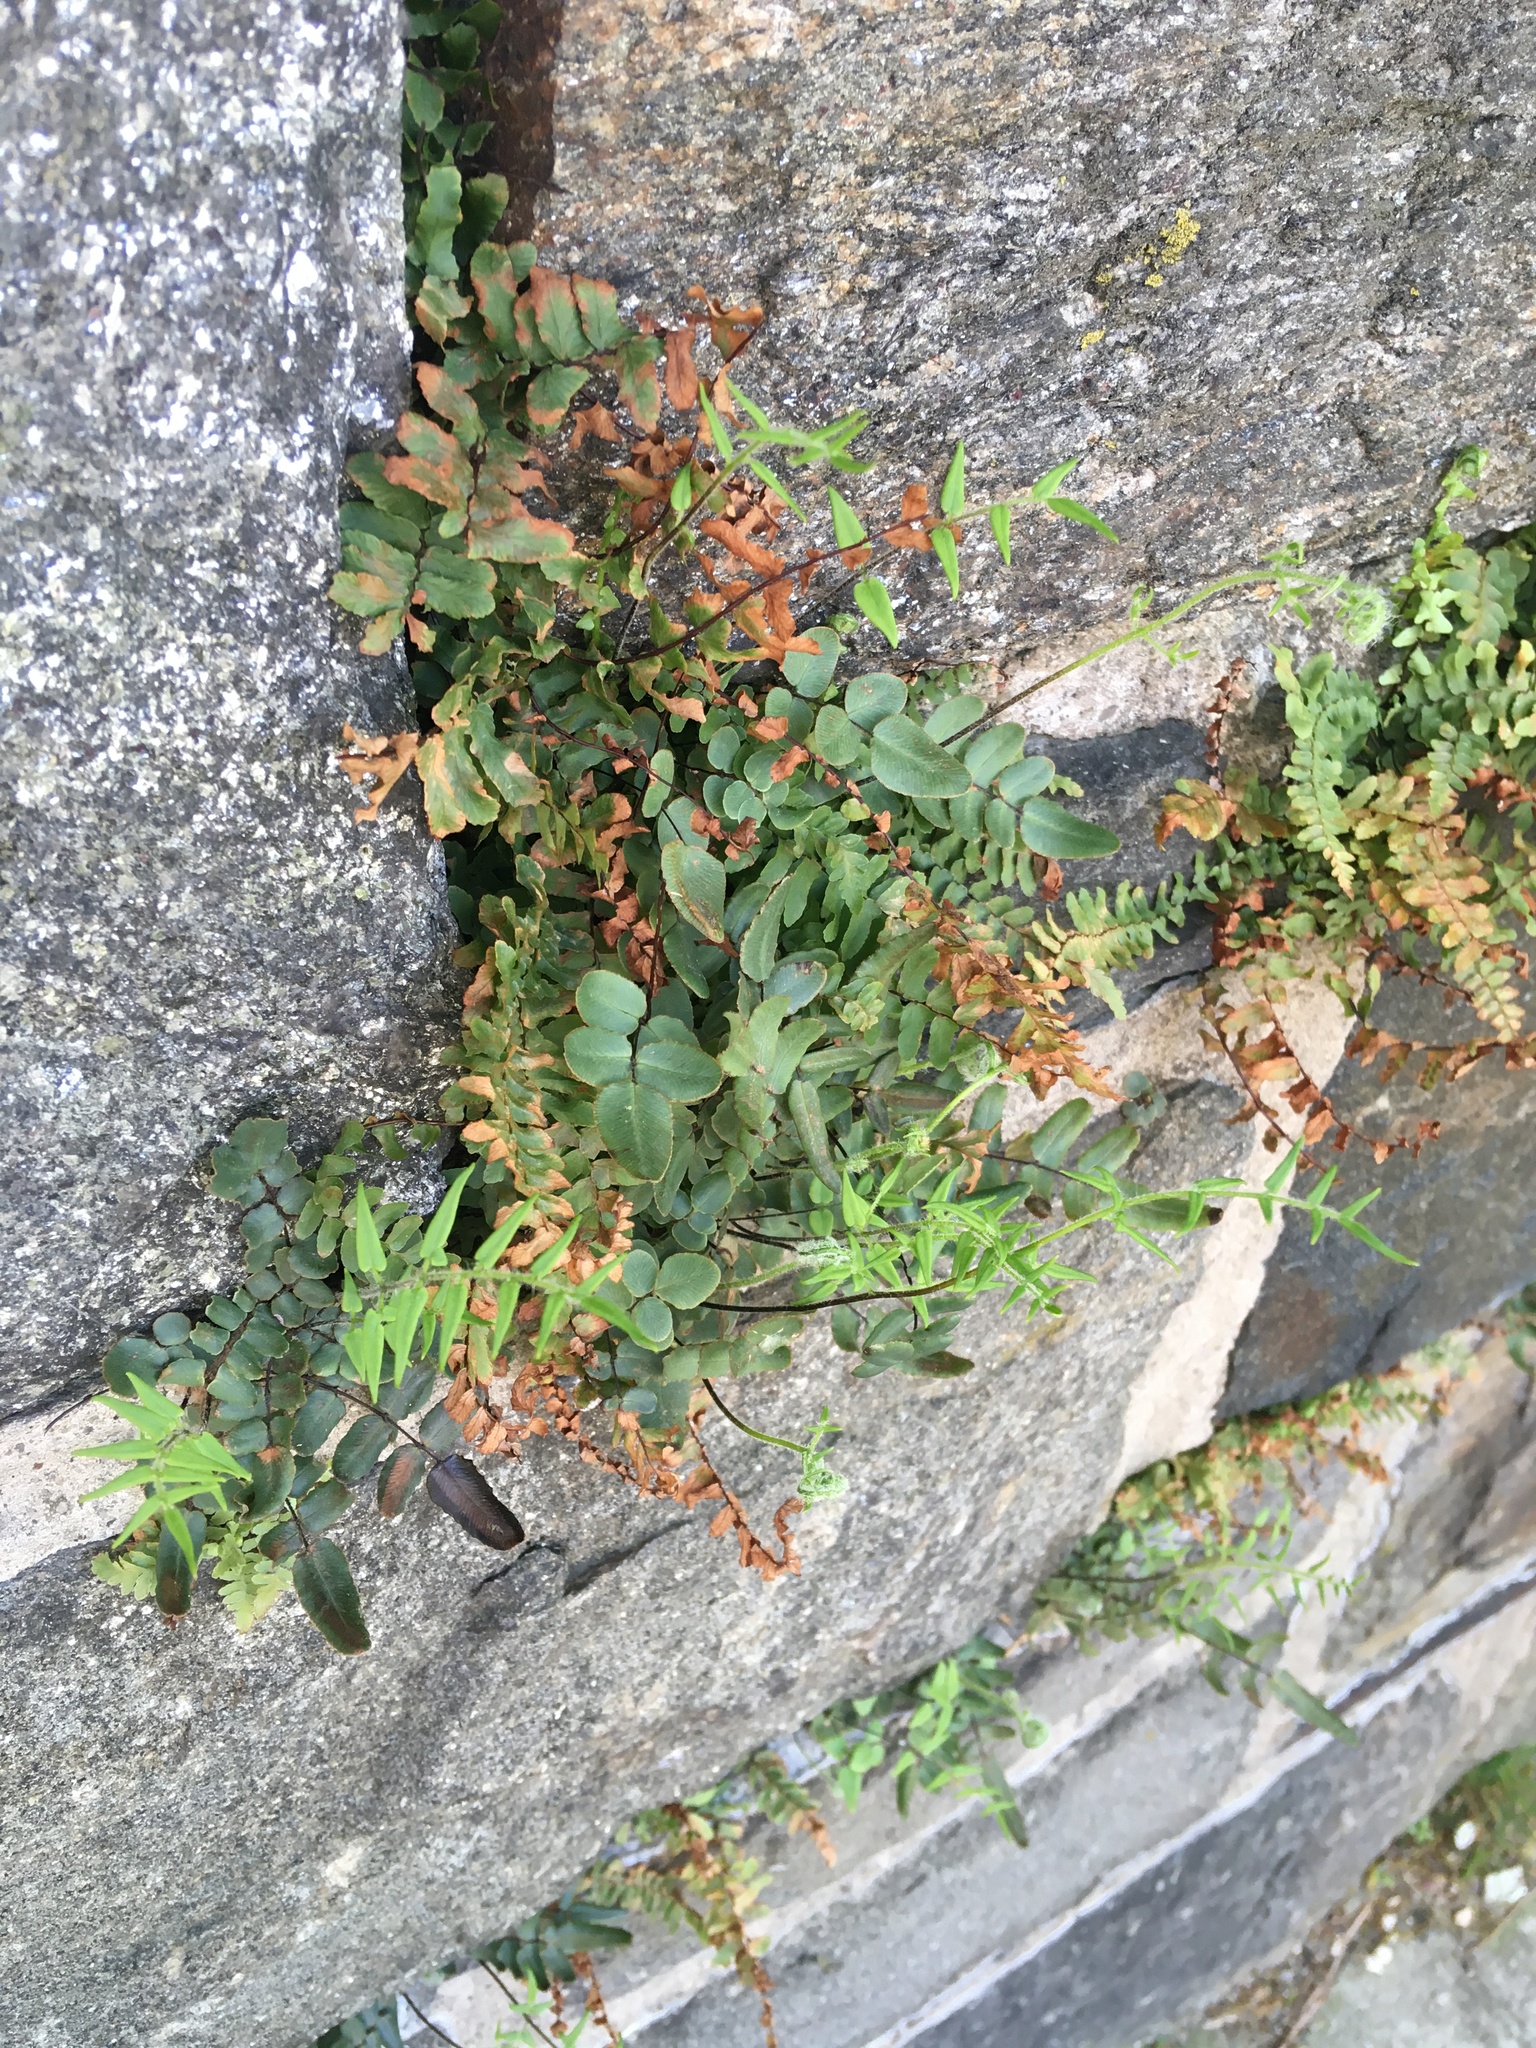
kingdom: Plantae
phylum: Tracheophyta
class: Polypodiopsida
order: Polypodiales
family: Pteridaceae
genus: Pellaea
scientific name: Pellaea atropurpurea
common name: Hairy cliffbrake
